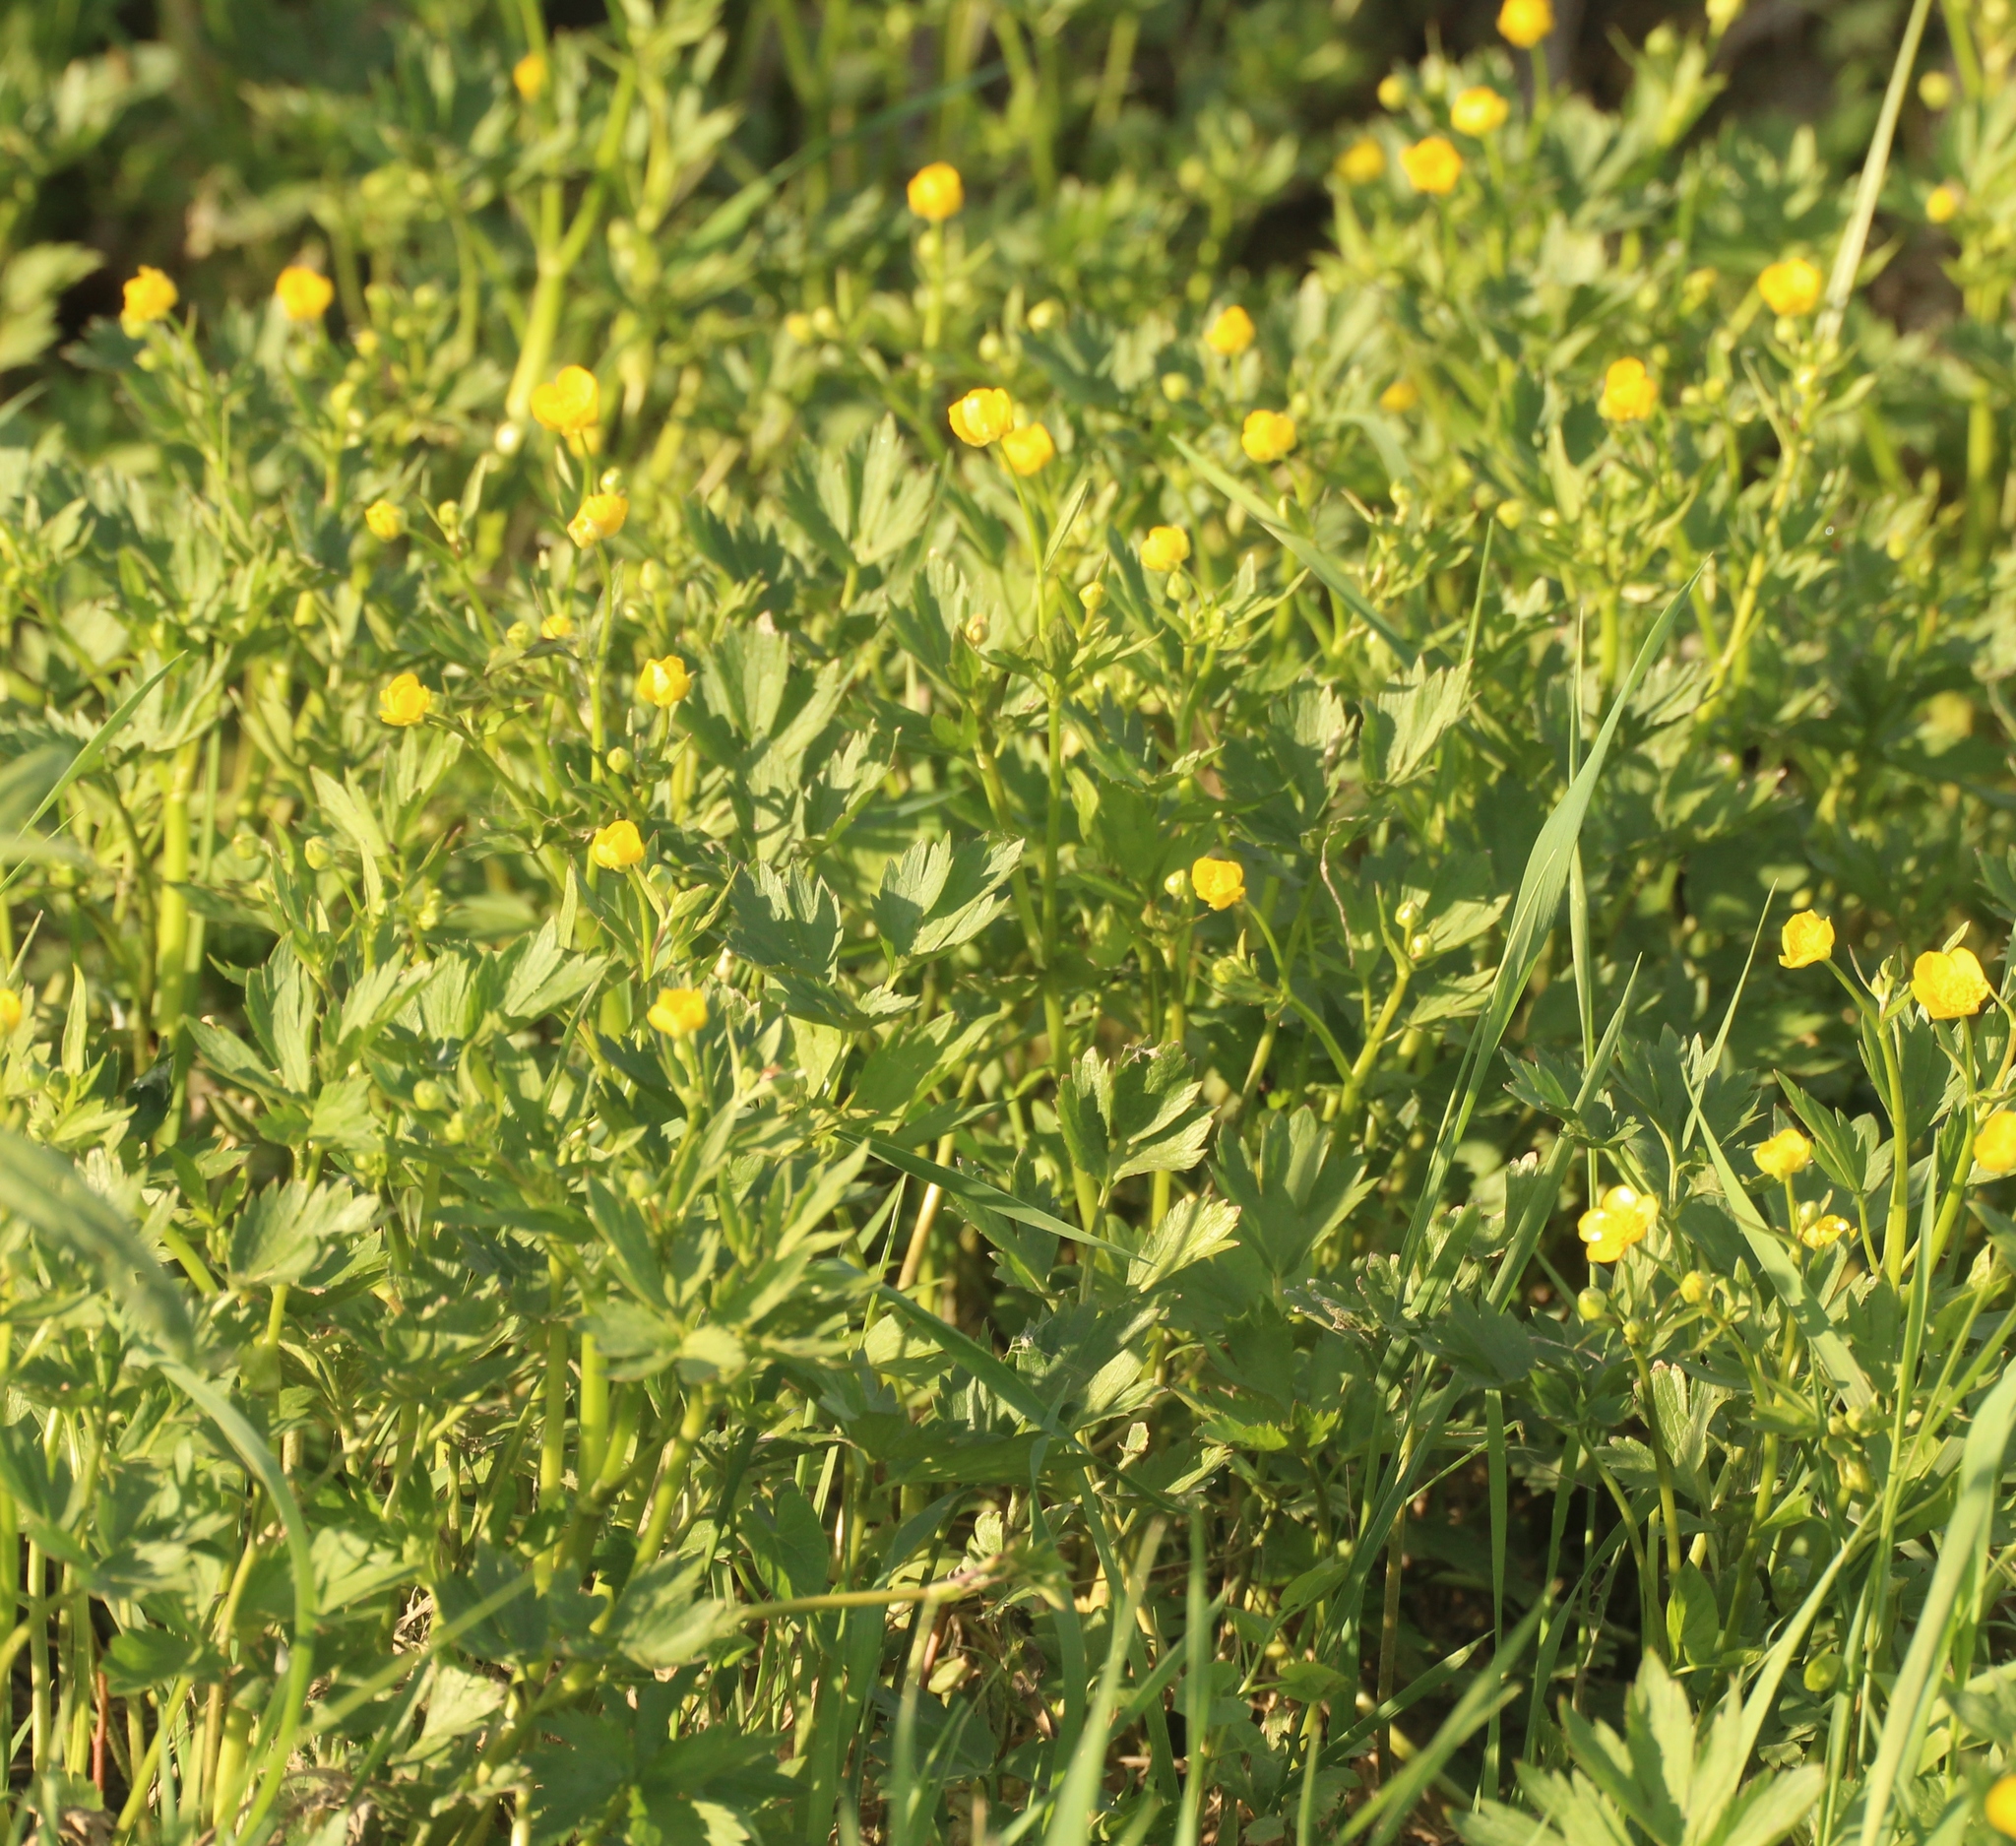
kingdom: Plantae
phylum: Tracheophyta
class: Magnoliopsida
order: Ranunculales
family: Ranunculaceae
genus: Ranunculus
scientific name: Ranunculus repens
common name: Creeping buttercup
